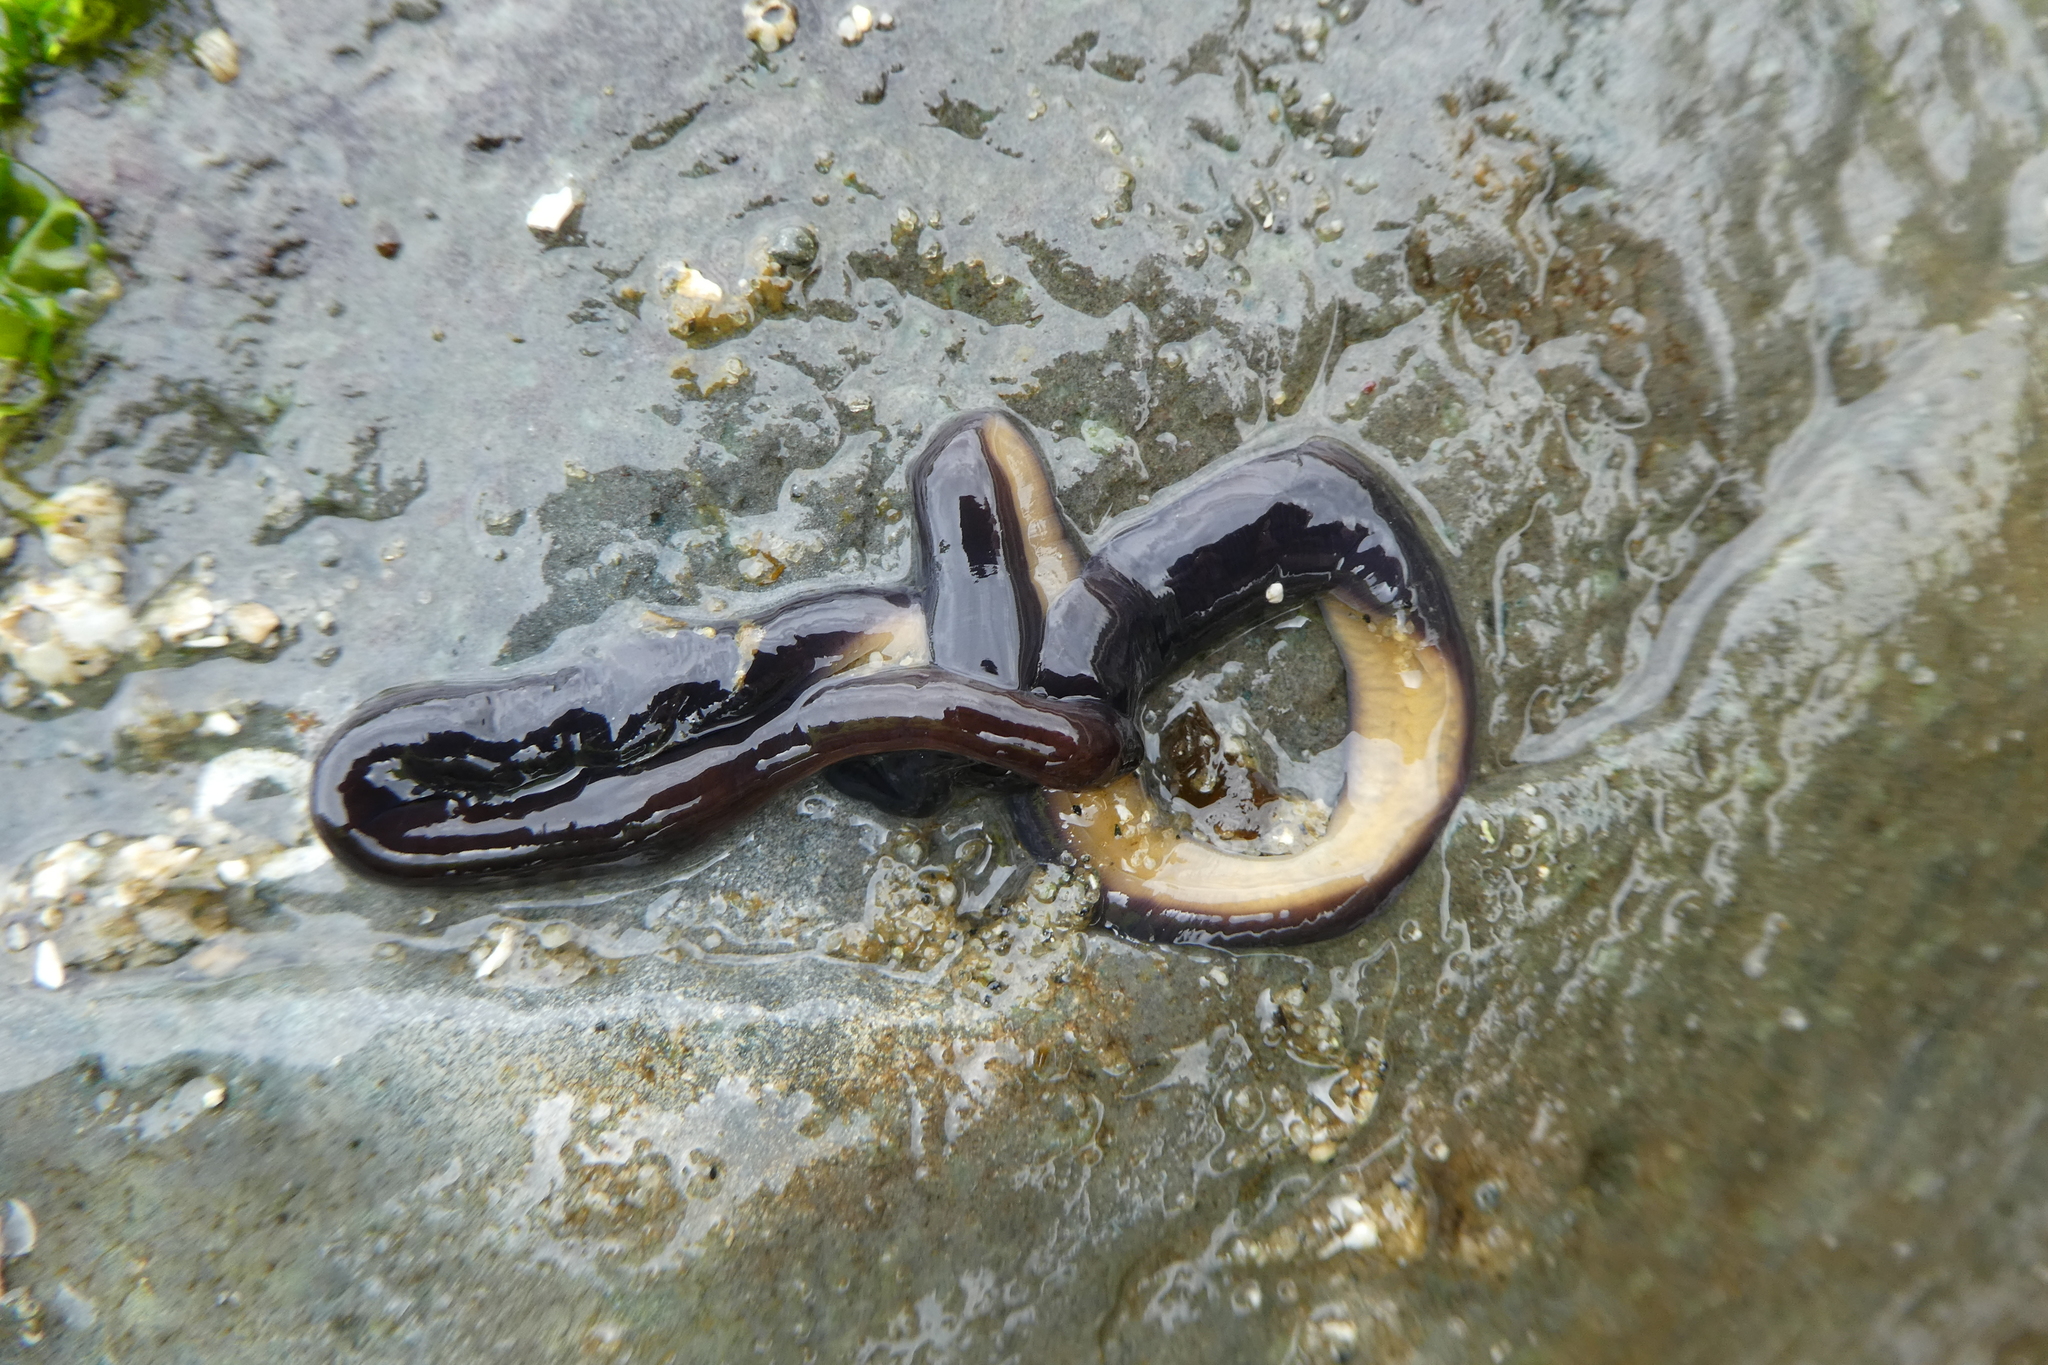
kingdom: Animalia
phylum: Nemertea
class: Hoplonemertea
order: Monostilifera
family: Neesiidae
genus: Paranemertes
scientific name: Paranemertes peregrina
